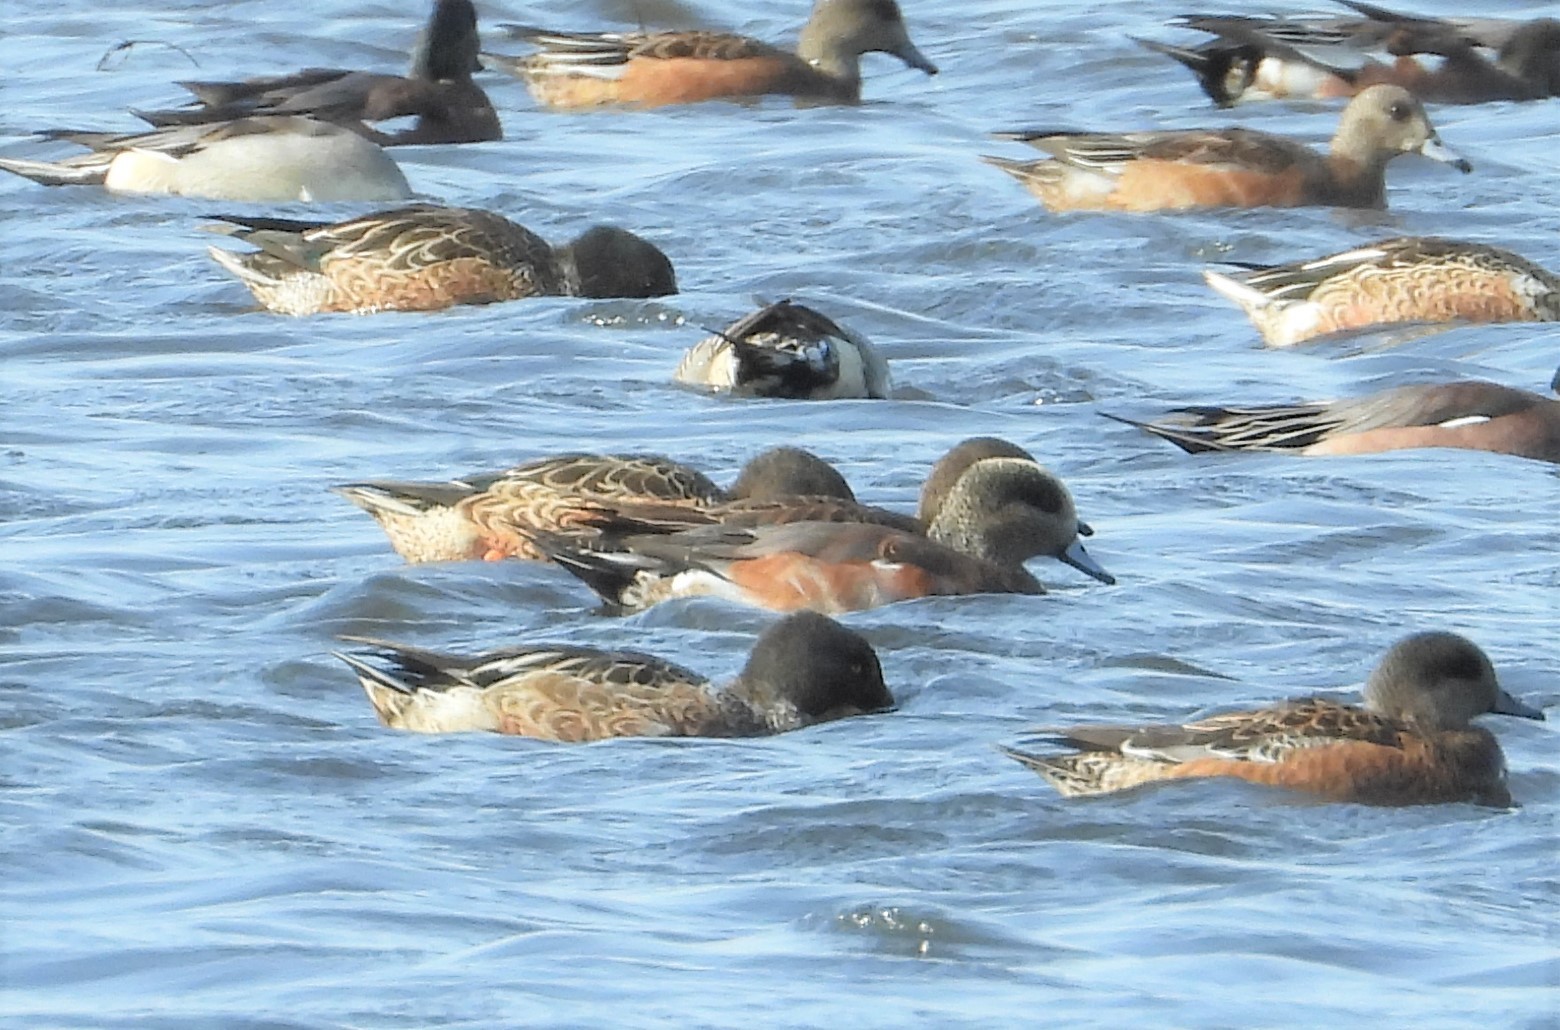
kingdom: Animalia
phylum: Chordata
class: Aves
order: Anseriformes
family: Anatidae
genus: Mareca
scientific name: Mareca americana
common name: American wigeon
